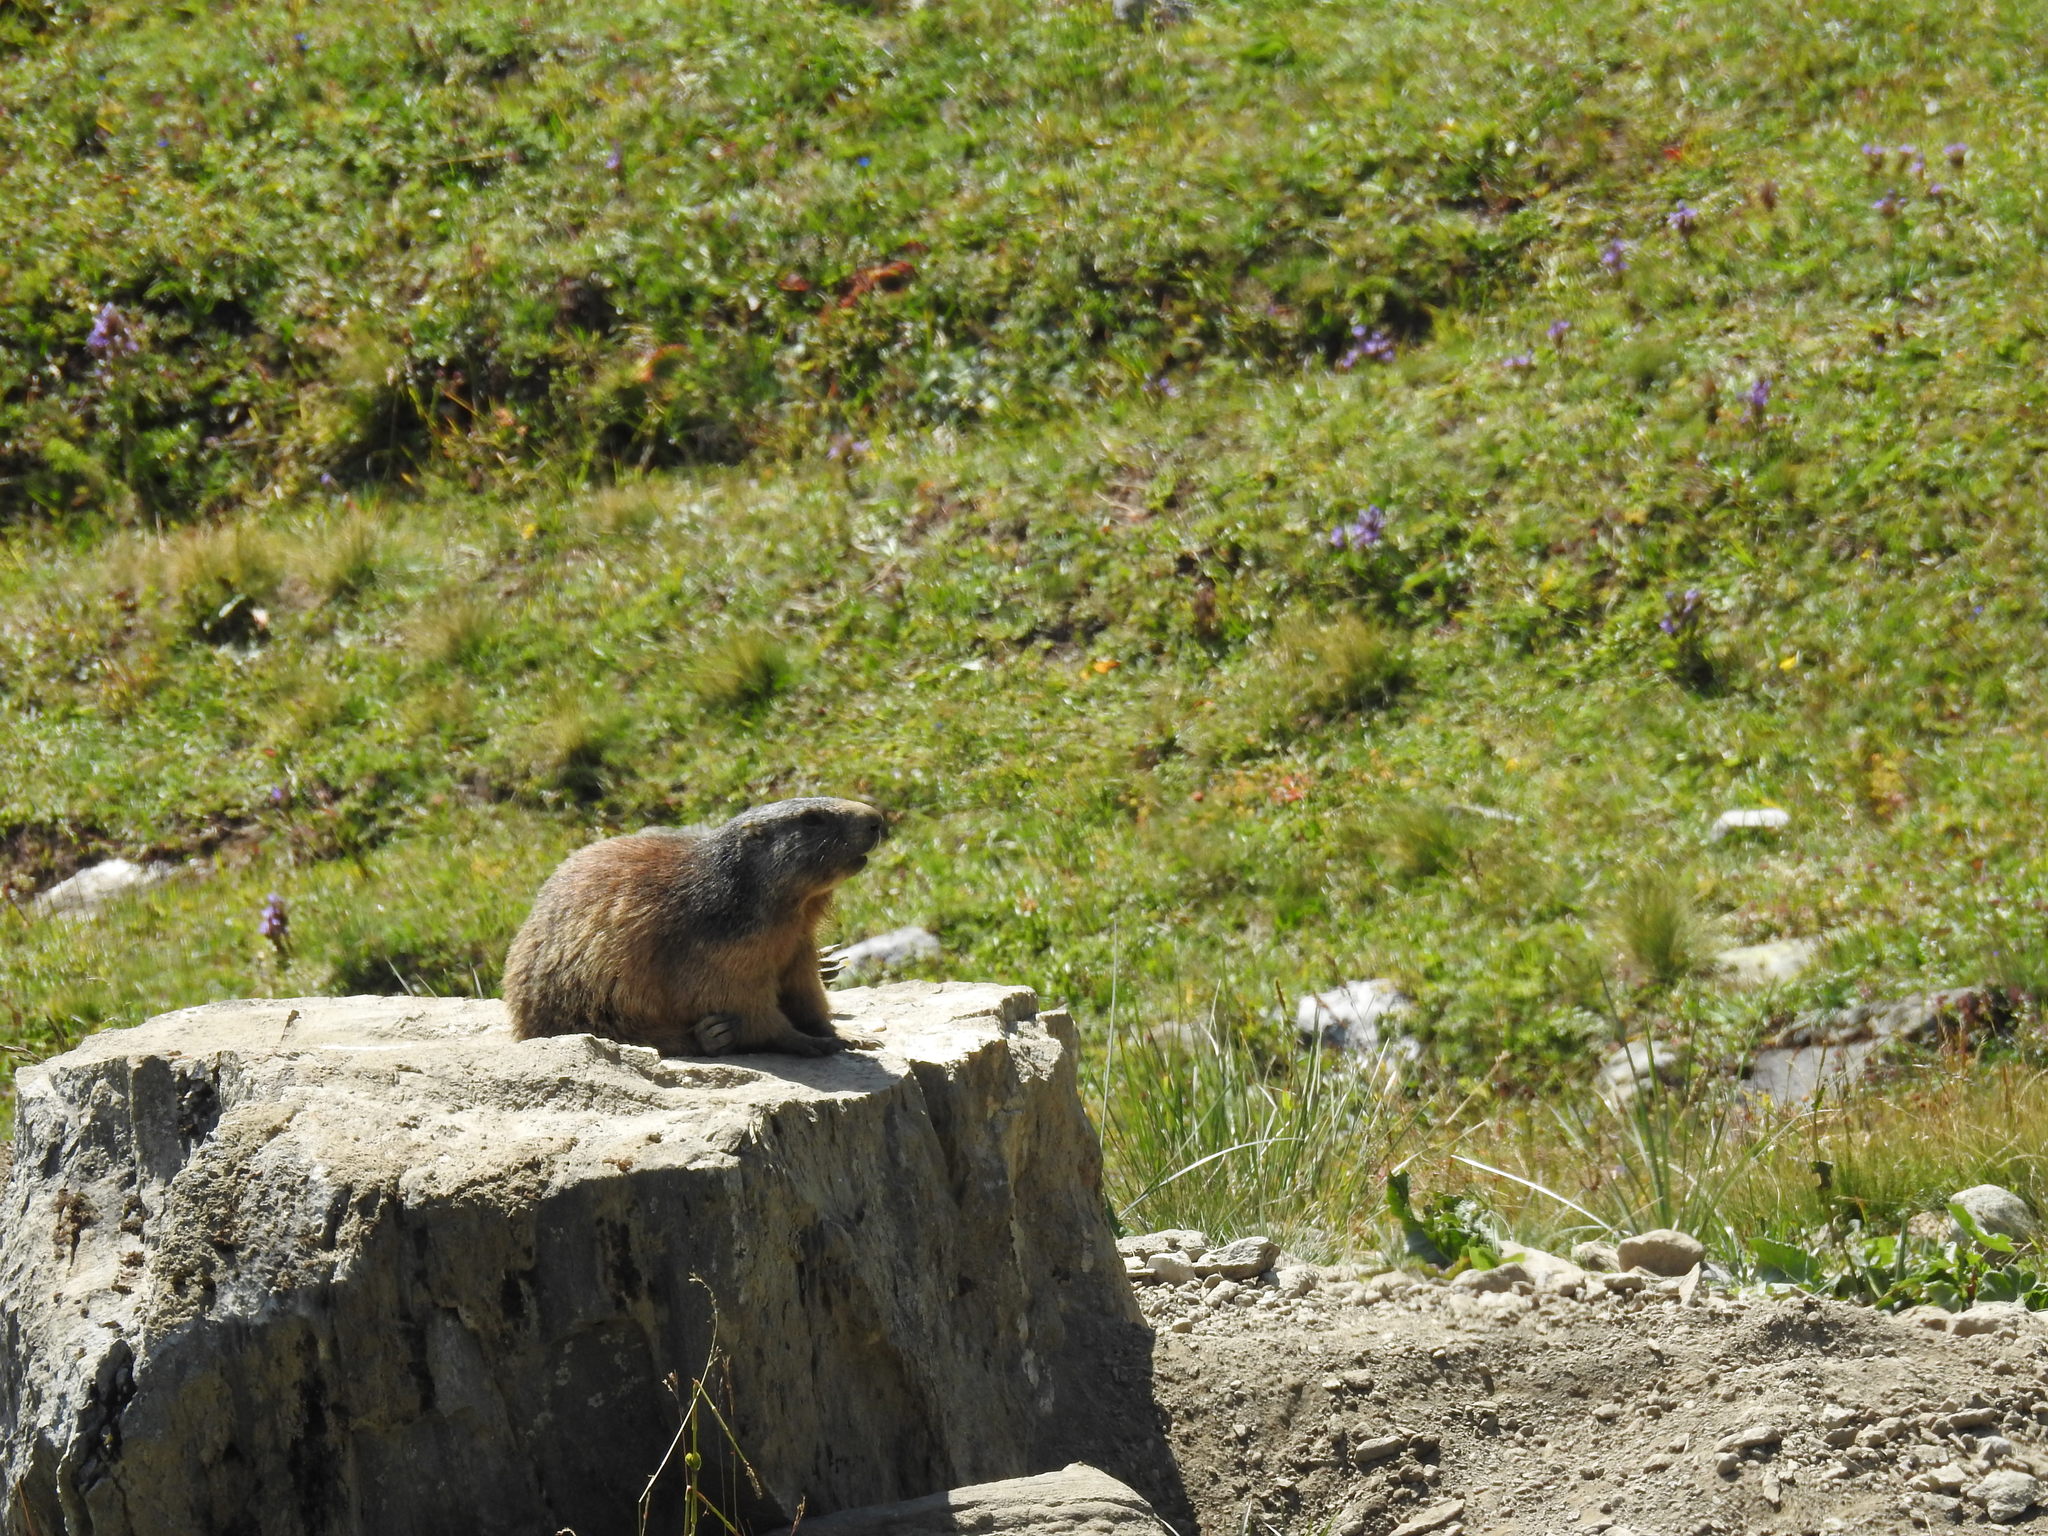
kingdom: Animalia
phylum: Chordata
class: Mammalia
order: Rodentia
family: Sciuridae
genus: Marmota
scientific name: Marmota marmota
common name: Alpine marmot
